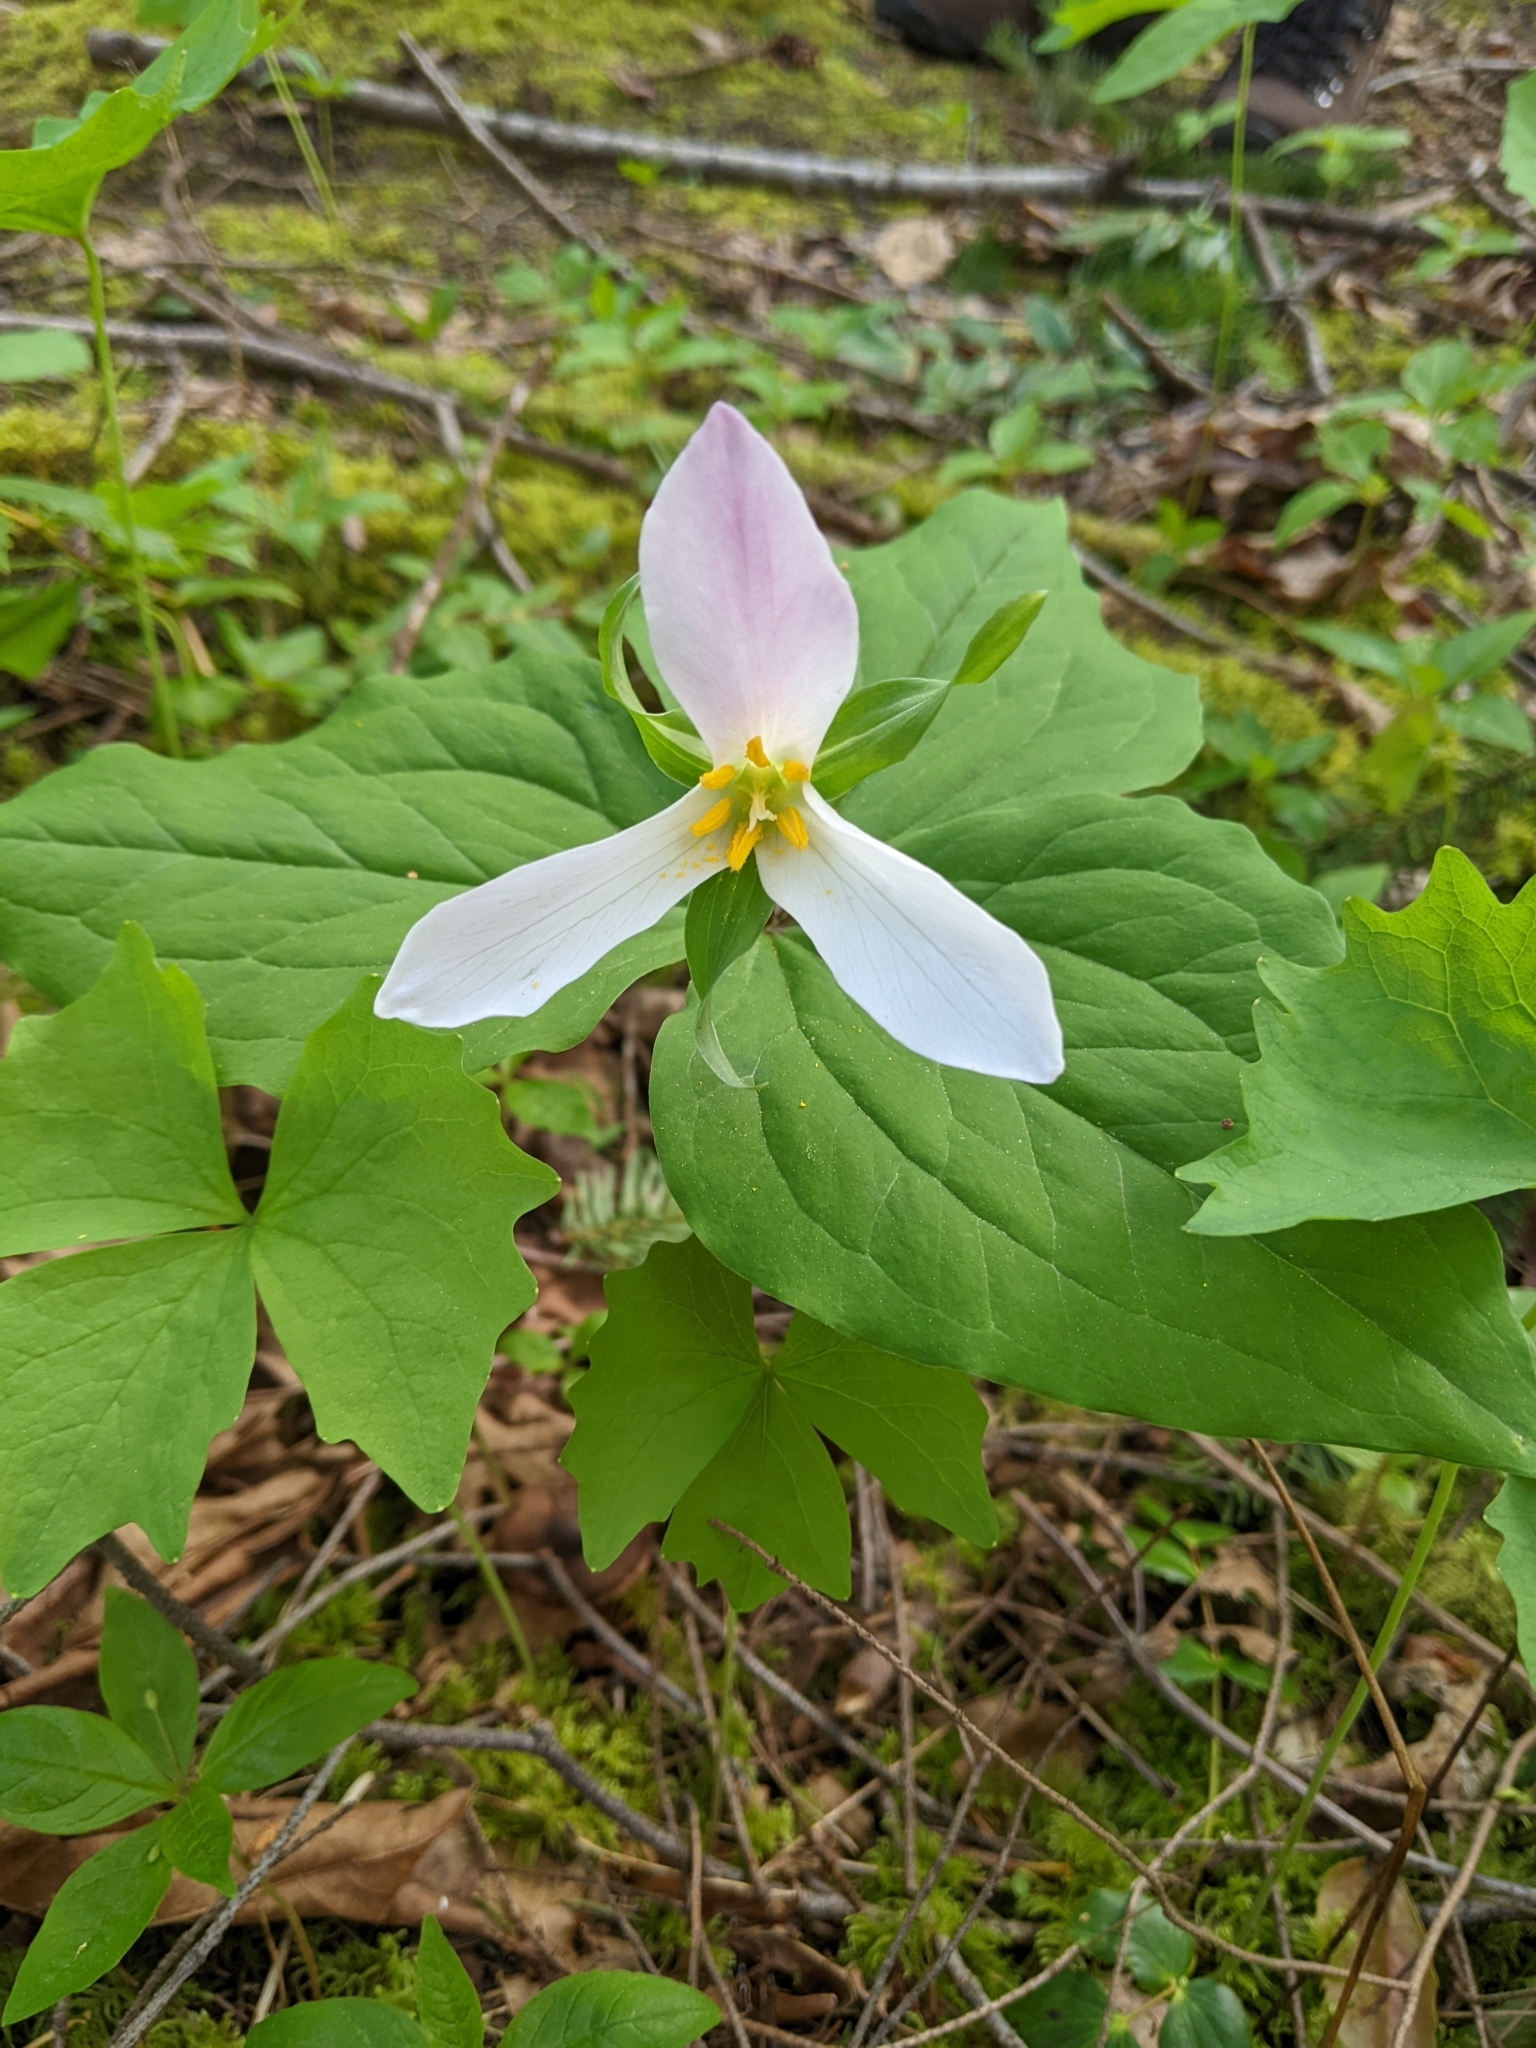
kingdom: Plantae
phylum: Tracheophyta
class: Liliopsida
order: Liliales
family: Melanthiaceae
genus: Trillium
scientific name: Trillium ovatum
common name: Pacific trillium
